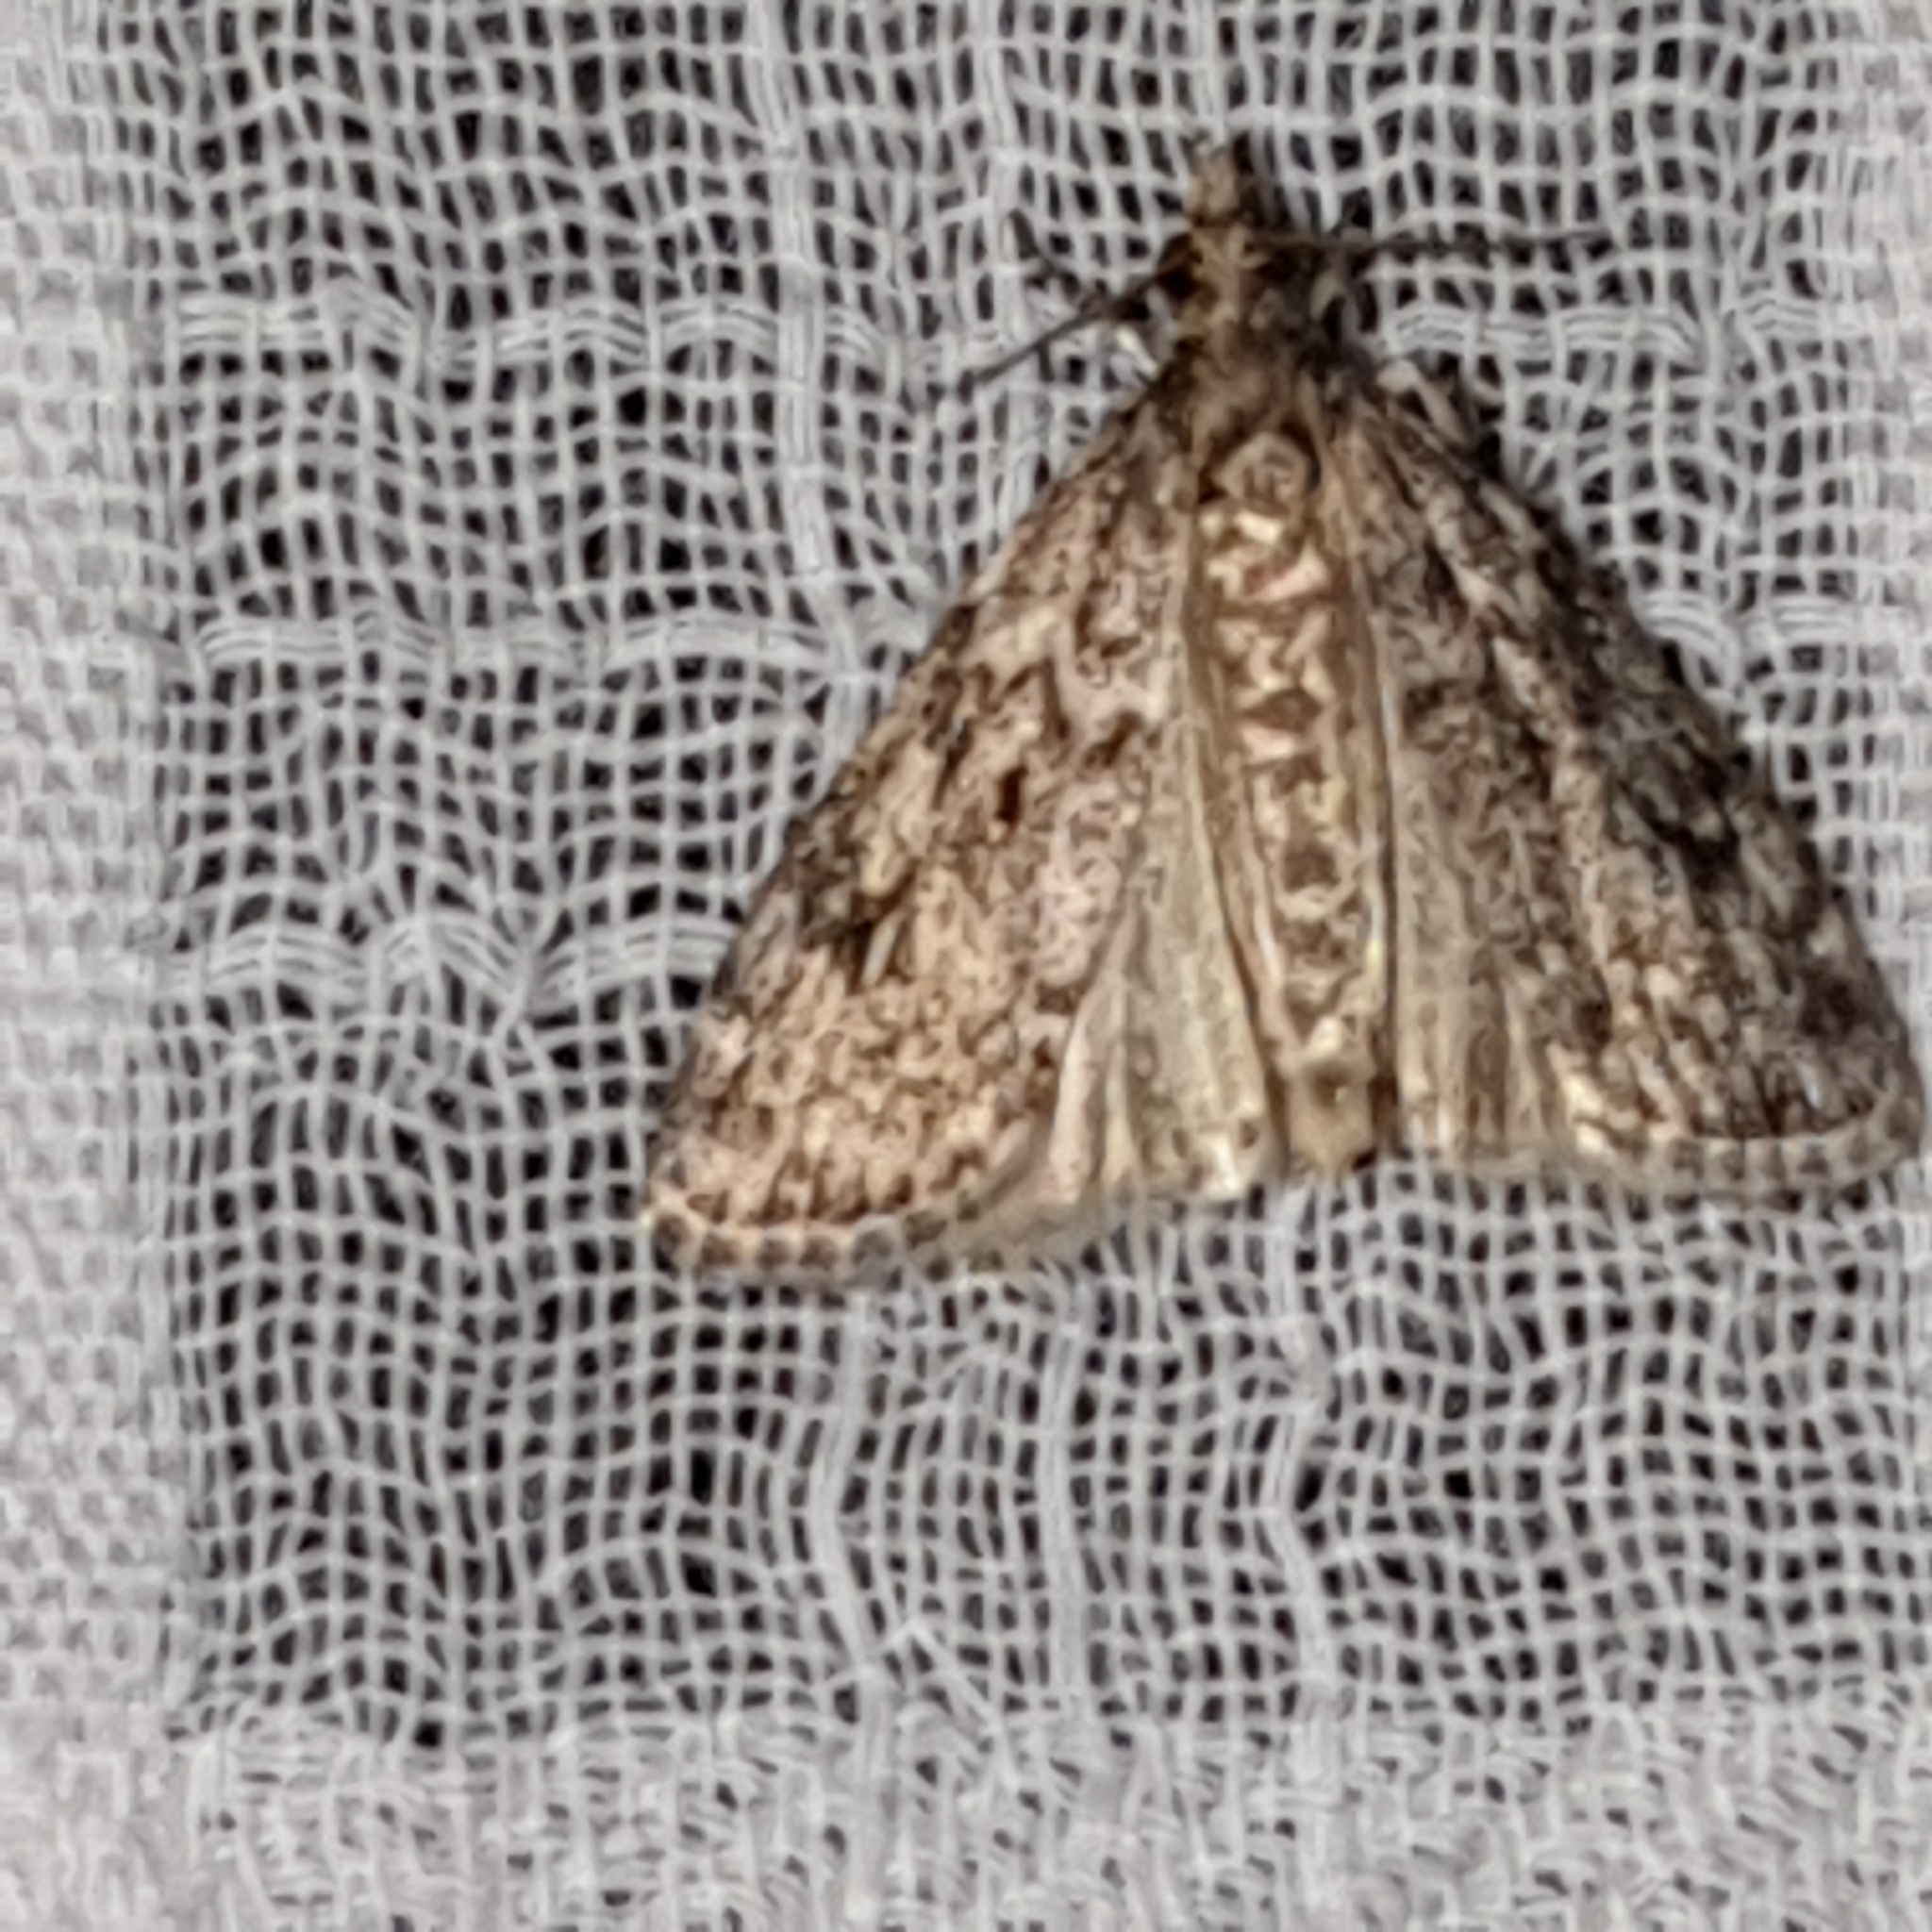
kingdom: Animalia
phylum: Arthropoda
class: Insecta
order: Lepidoptera
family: Crambidae
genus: Eudonia
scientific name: Eudonia truncicolella
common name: Ground-moss grey
